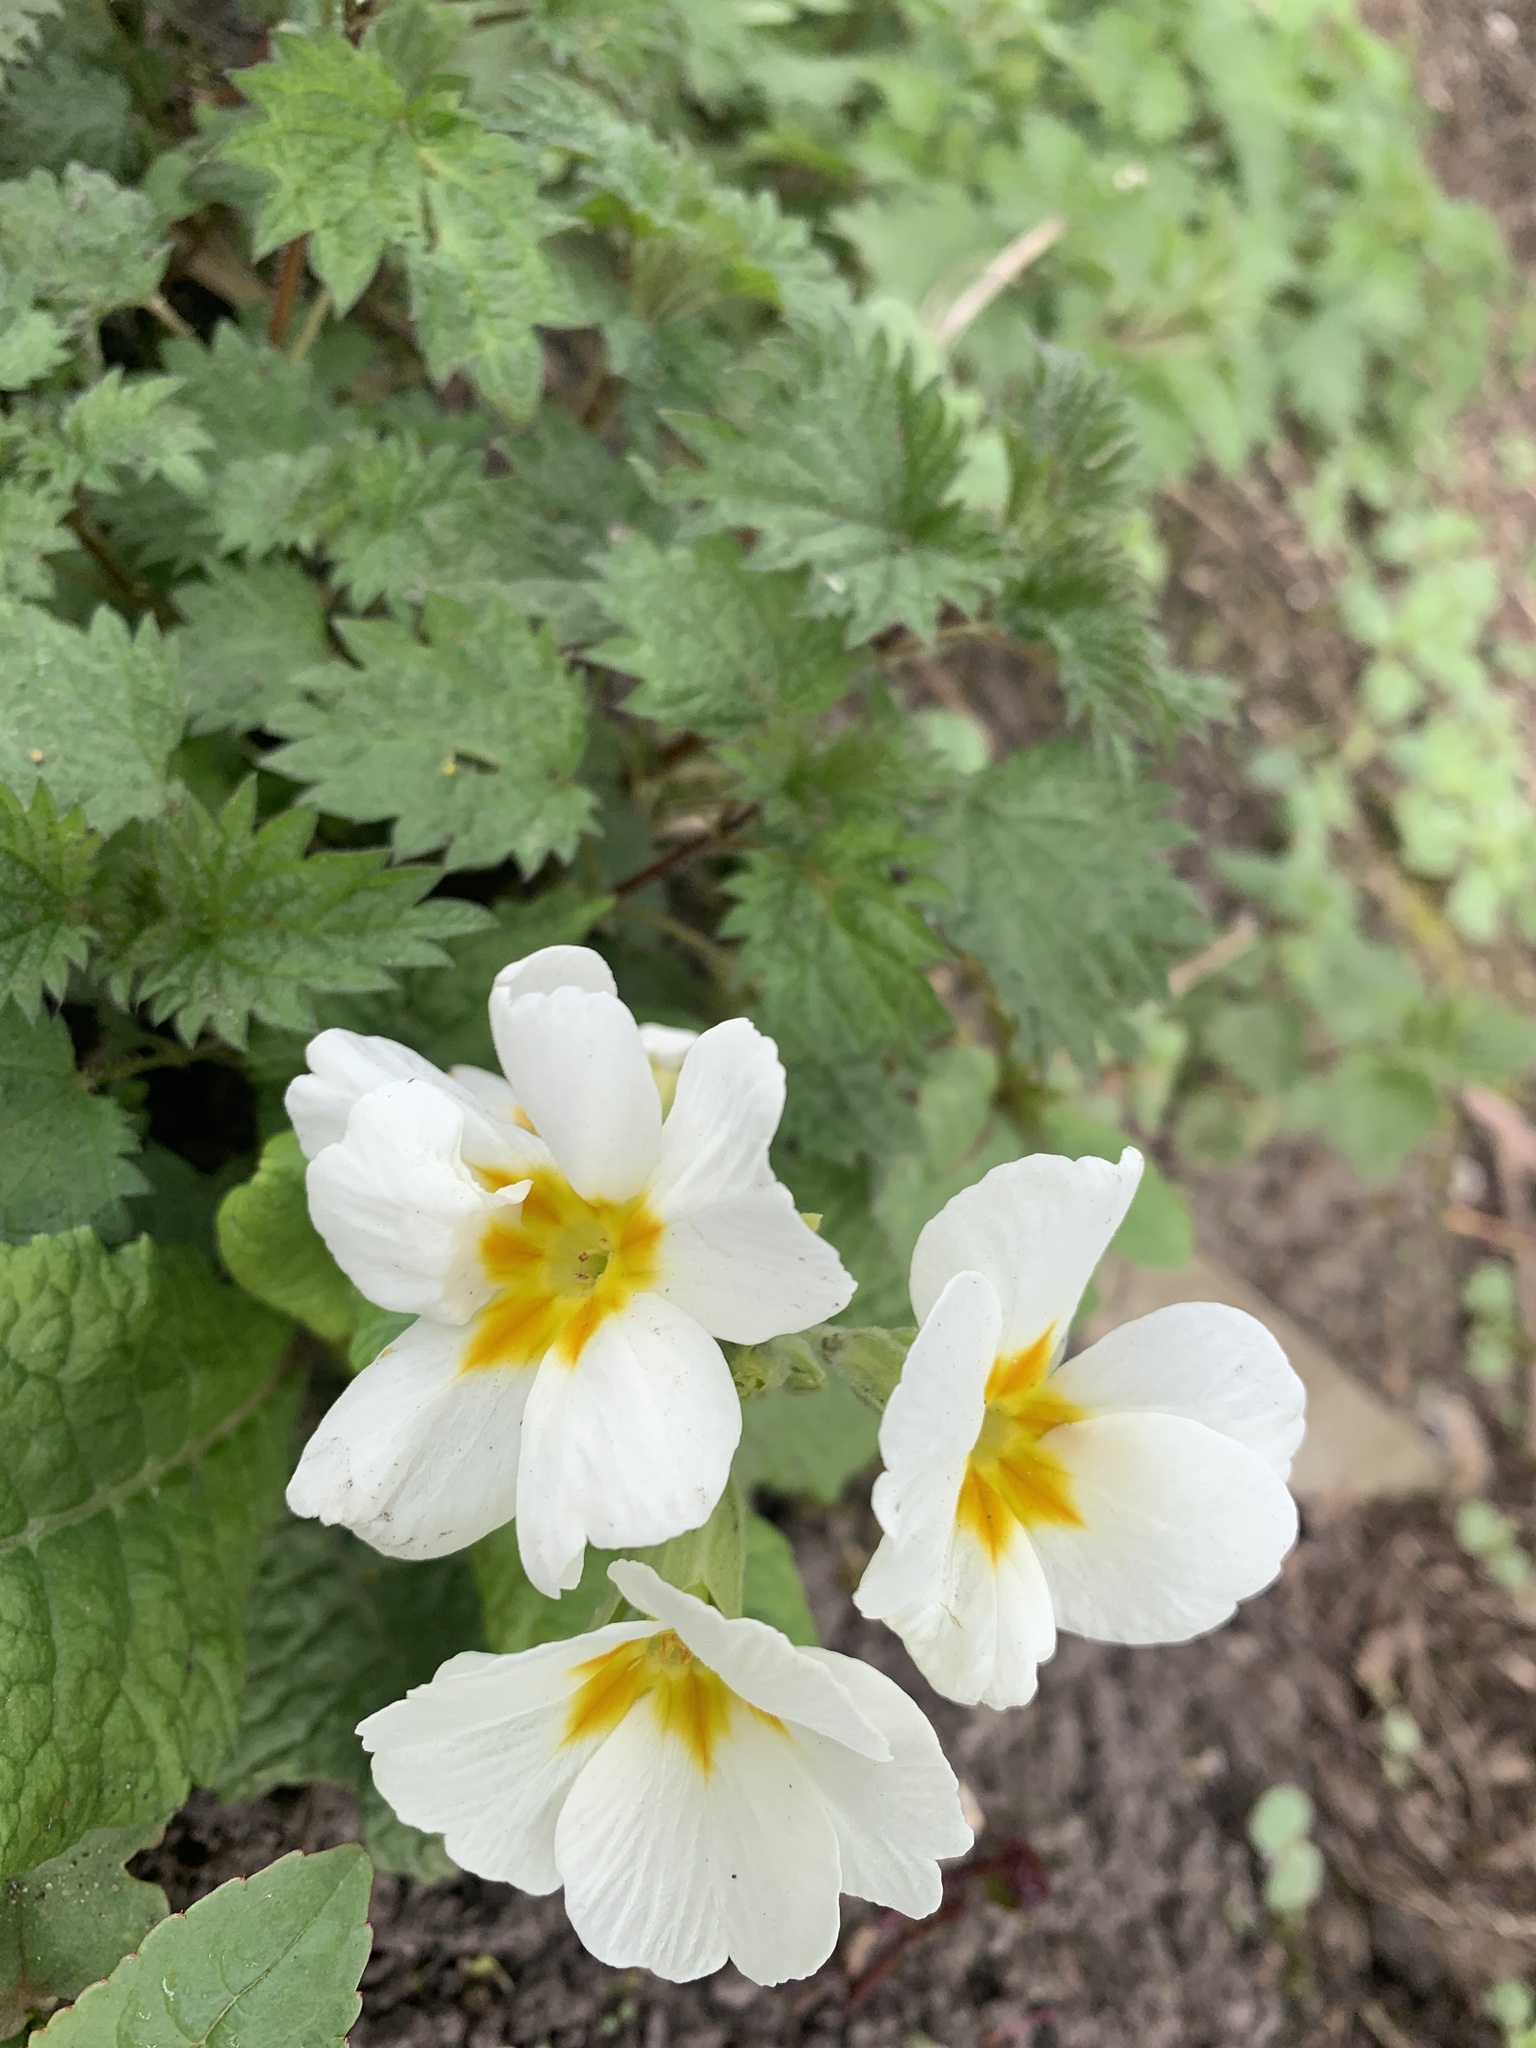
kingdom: Plantae
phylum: Tracheophyta
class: Magnoliopsida
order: Ericales
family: Primulaceae
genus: Primula
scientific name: Primula vulgaris
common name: Primrose
